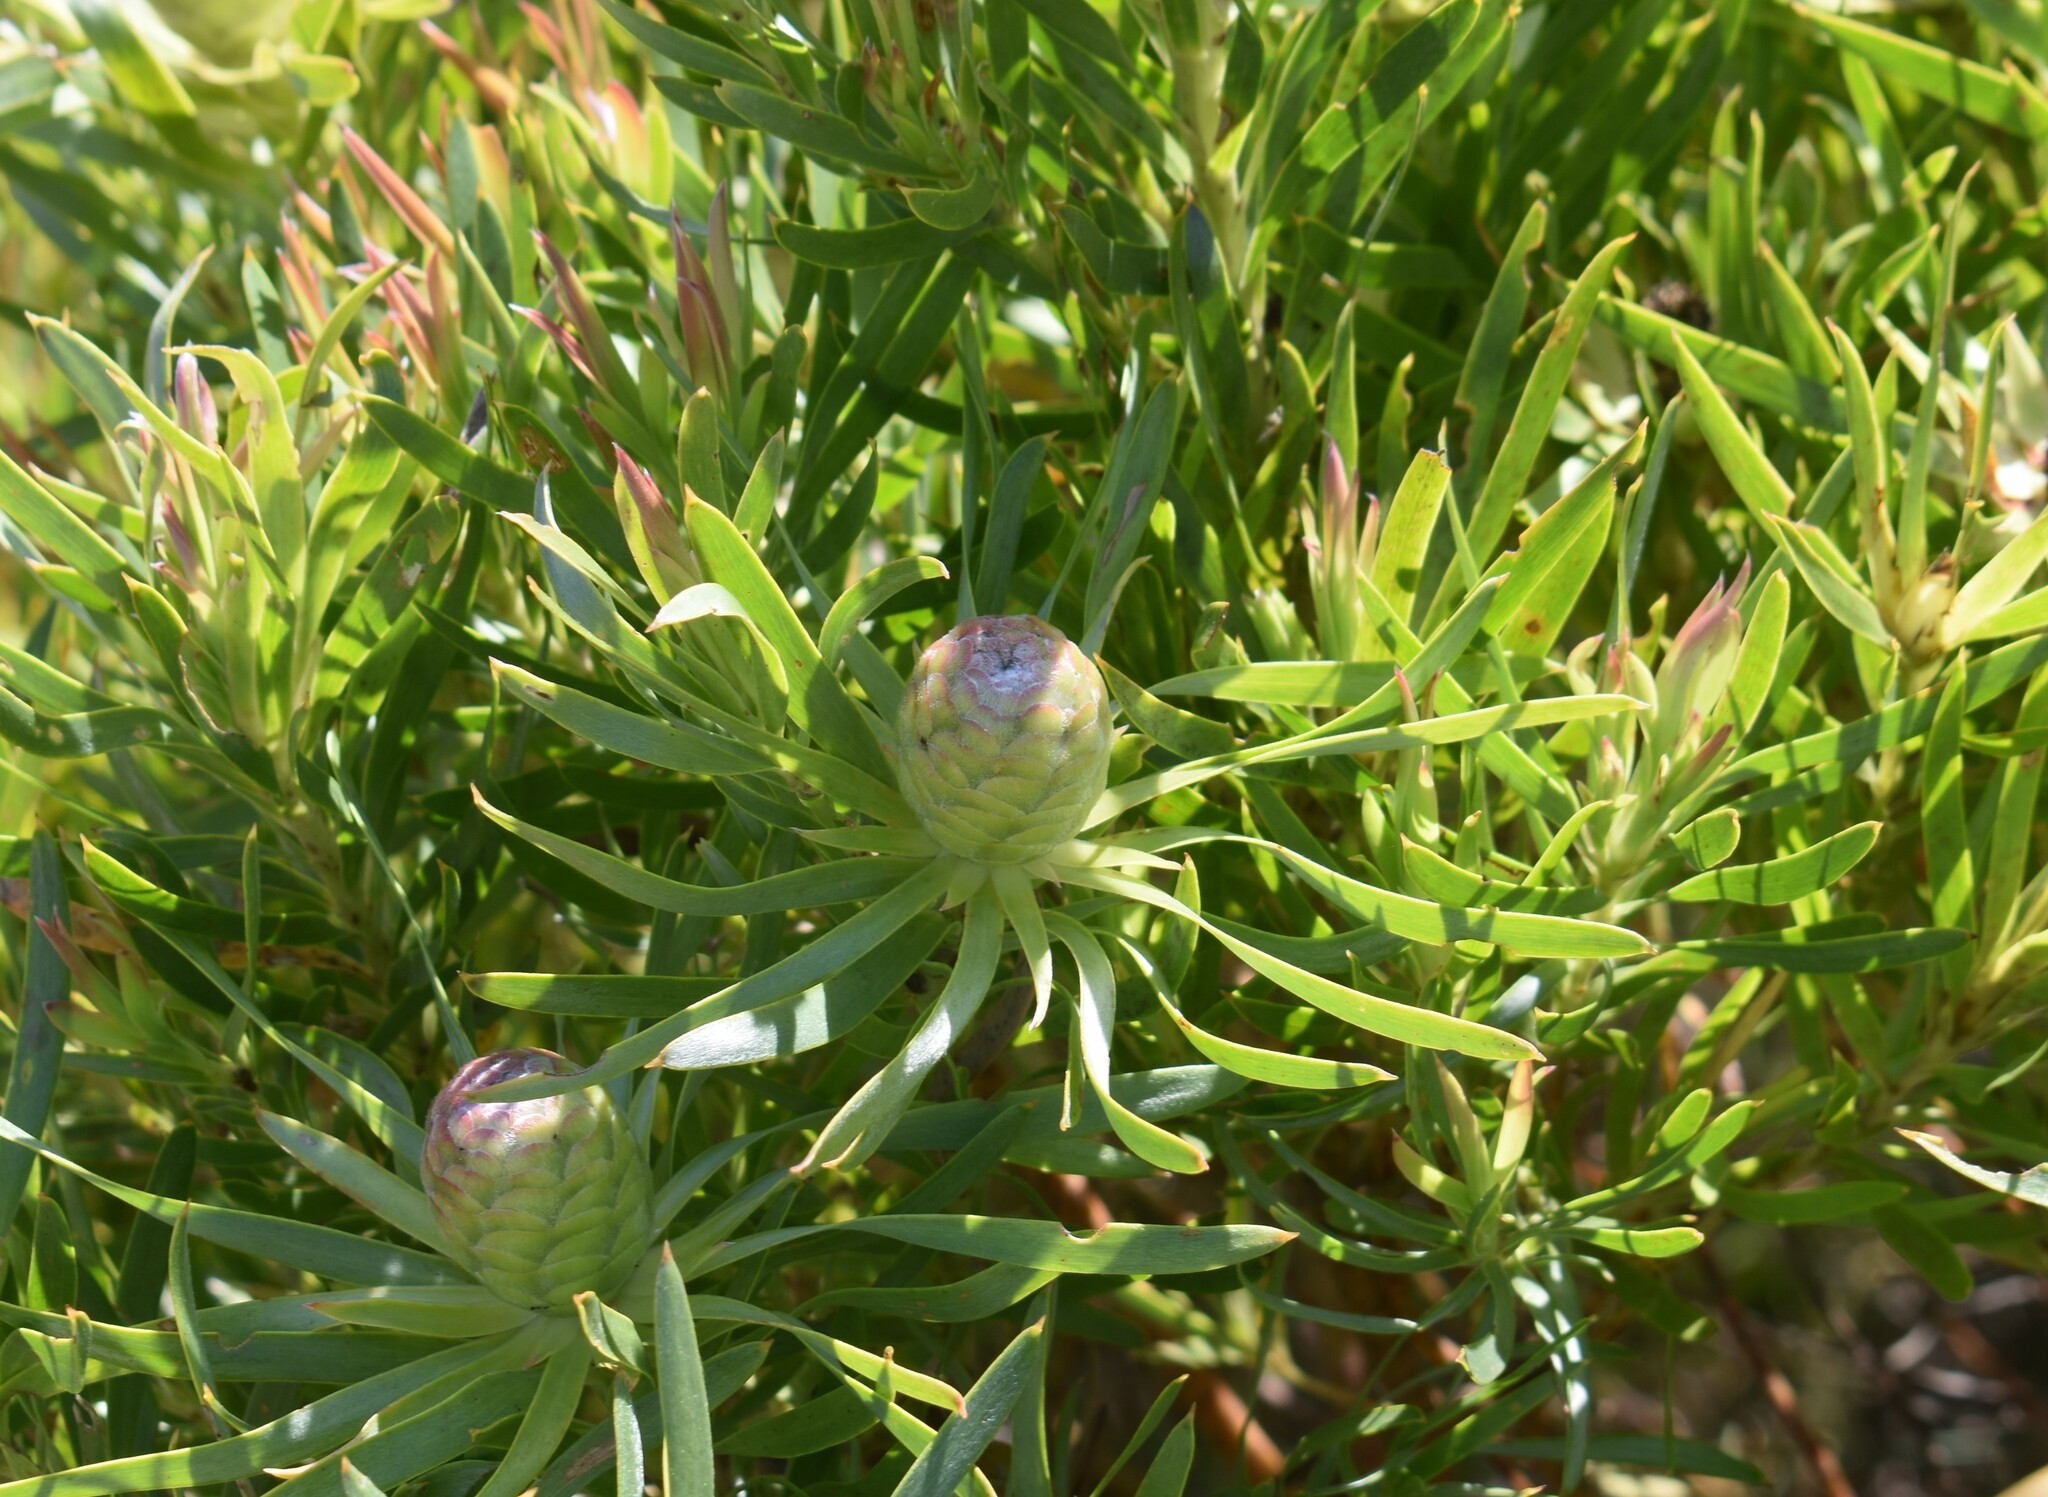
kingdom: Plantae
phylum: Tracheophyta
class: Magnoliopsida
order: Proteales
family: Proteaceae
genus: Leucadendron
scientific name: Leucadendron xanthoconus
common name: Sickle-leaf conebush
